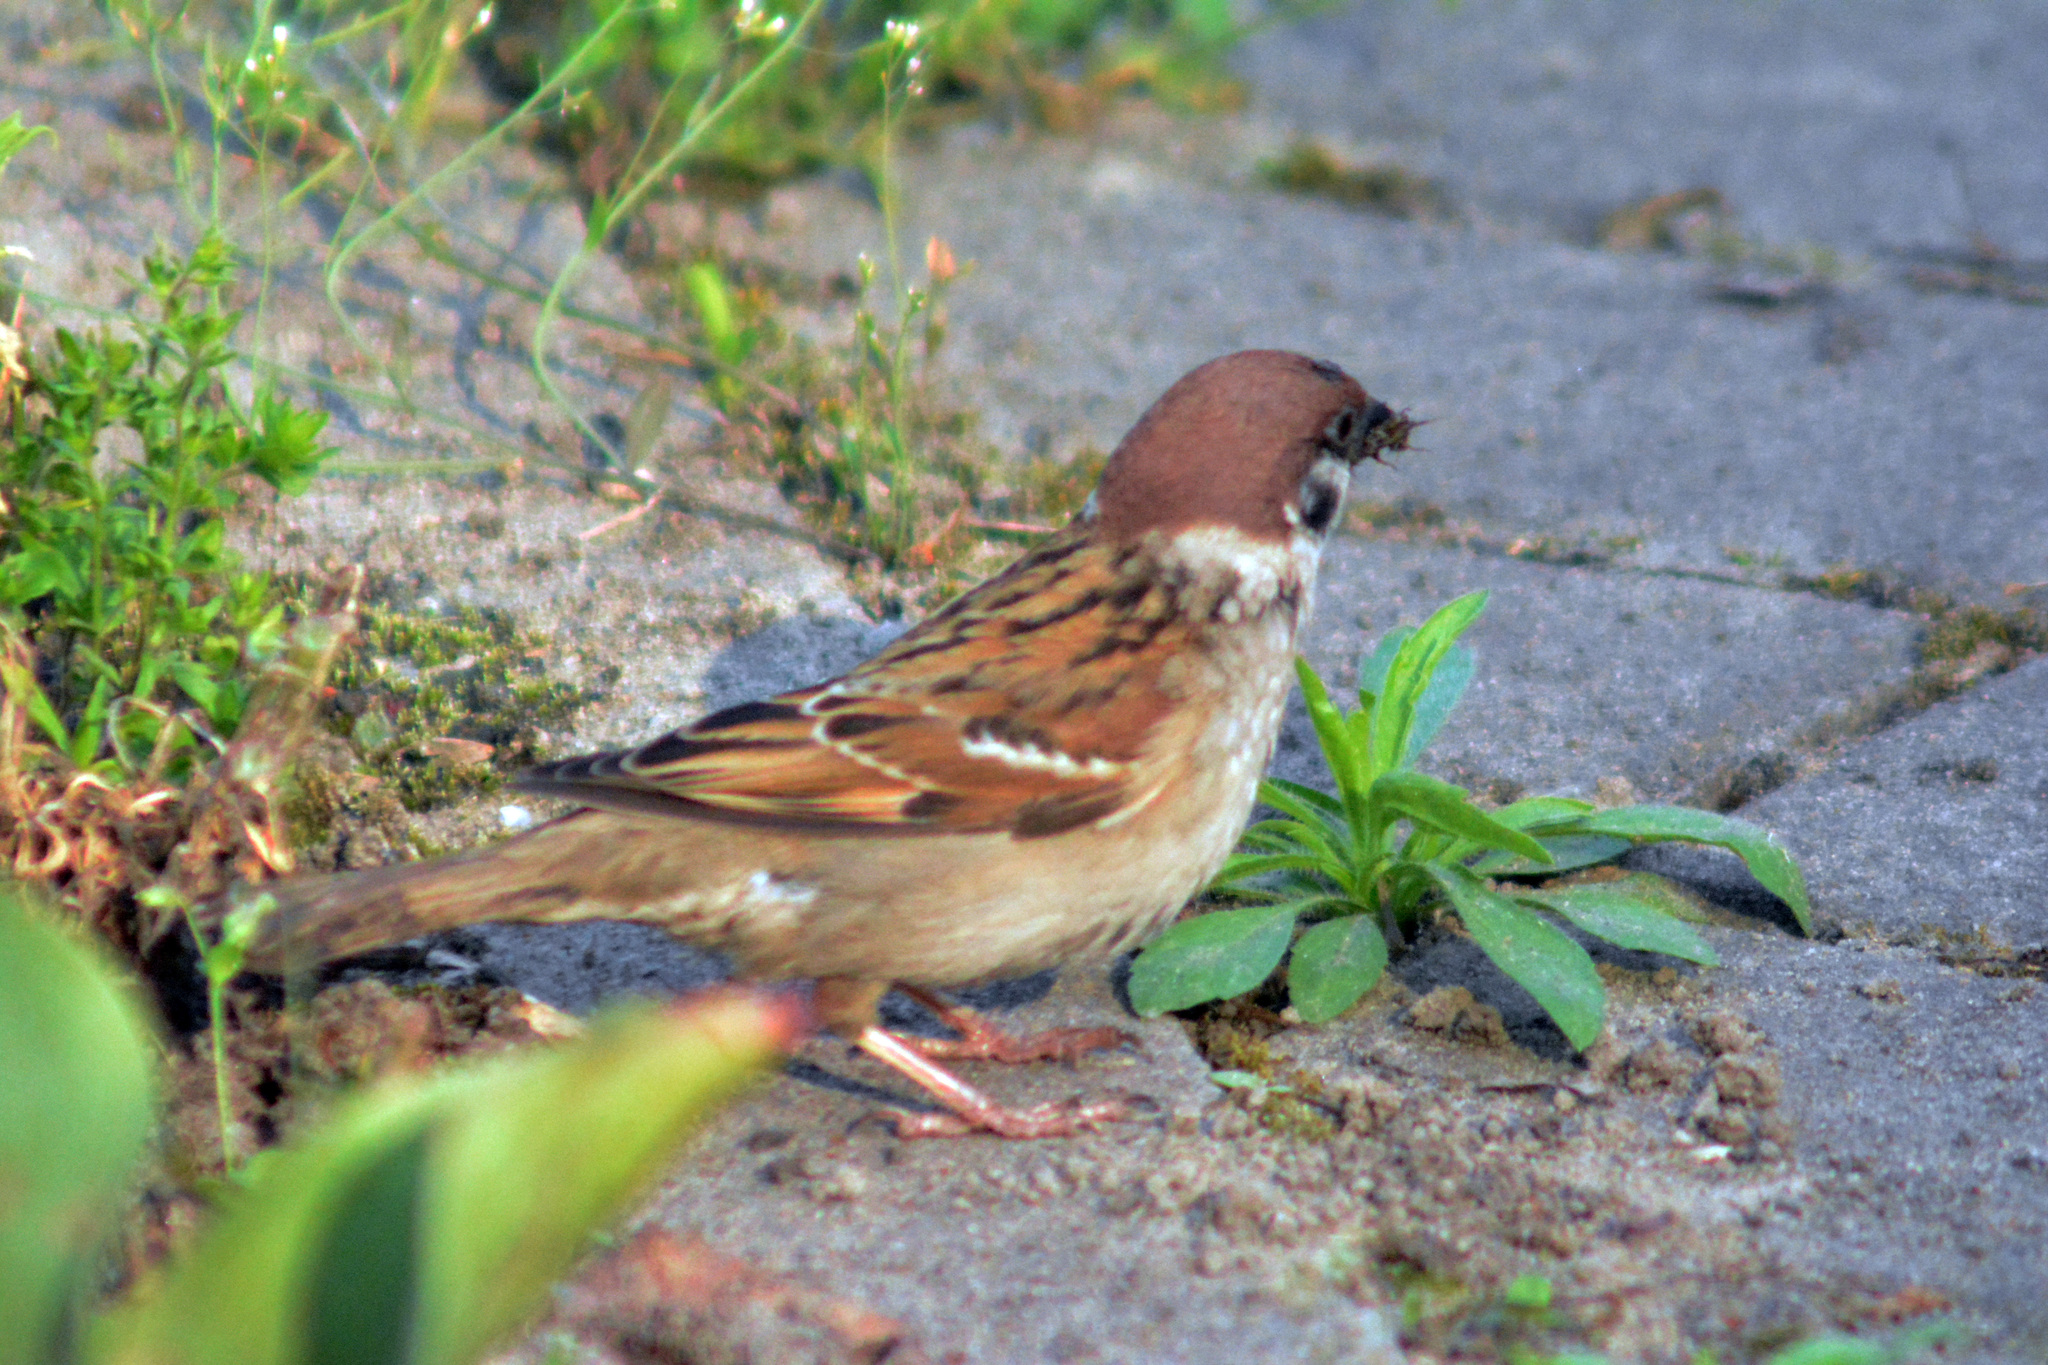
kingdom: Animalia
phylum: Chordata
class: Aves
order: Passeriformes
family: Passeridae
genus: Passer
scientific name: Passer montanus
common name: Eurasian tree sparrow
